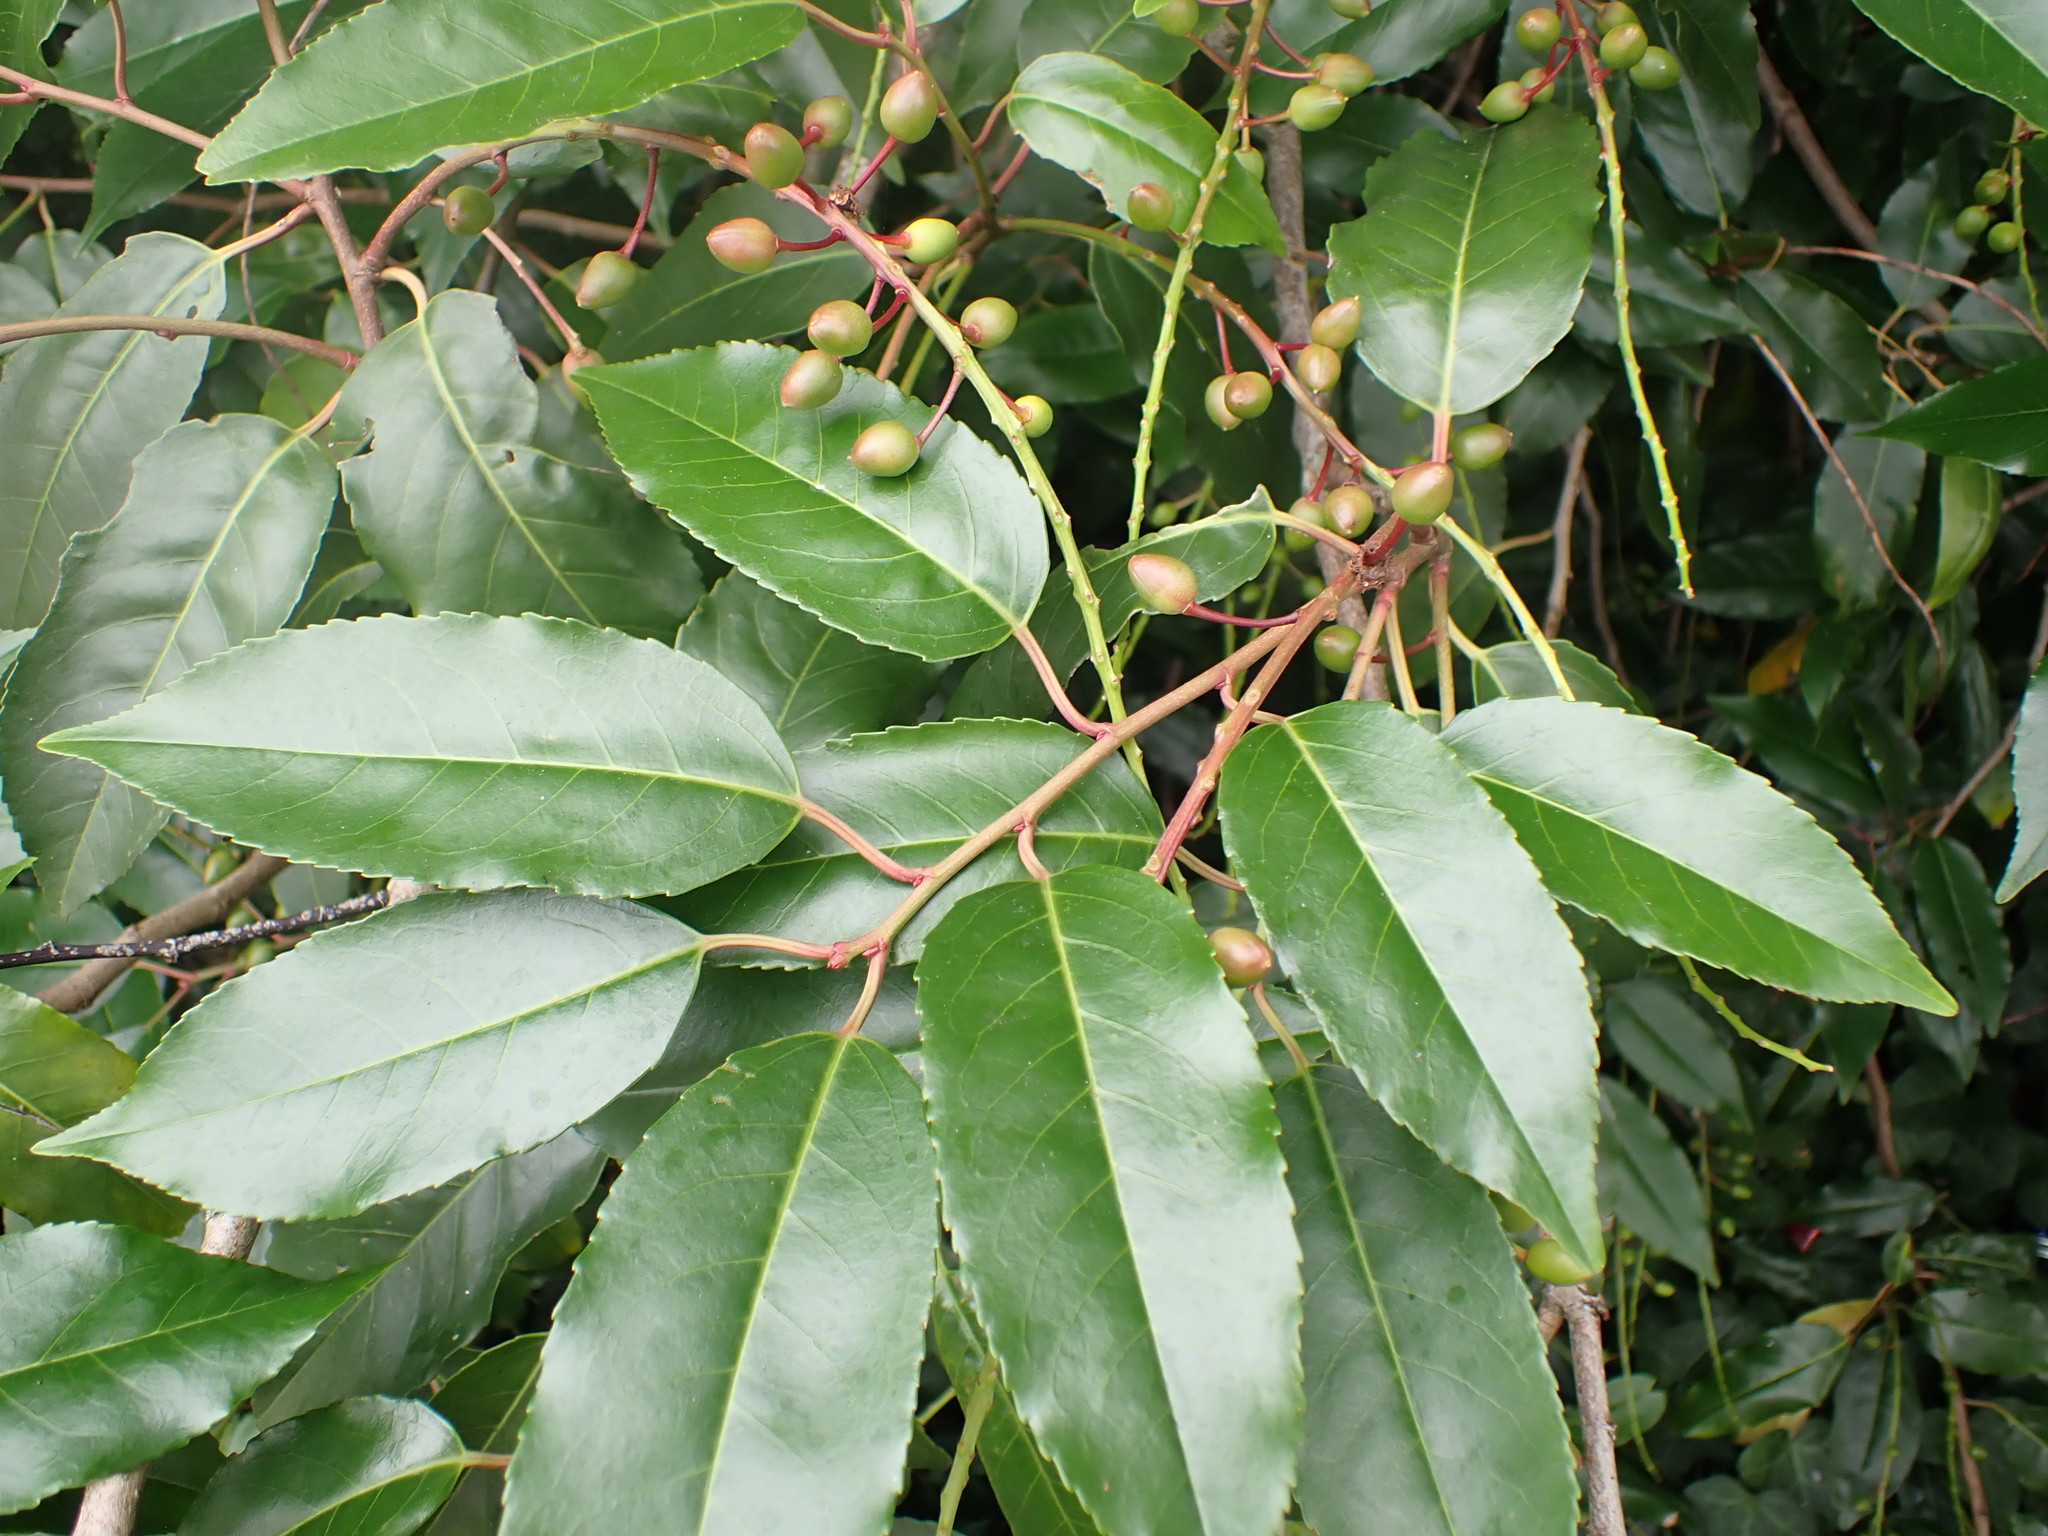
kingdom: Plantae
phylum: Tracheophyta
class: Magnoliopsida
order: Rosales
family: Rosaceae
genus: Prunus
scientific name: Prunus lusitanica
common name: Portugal laurel
